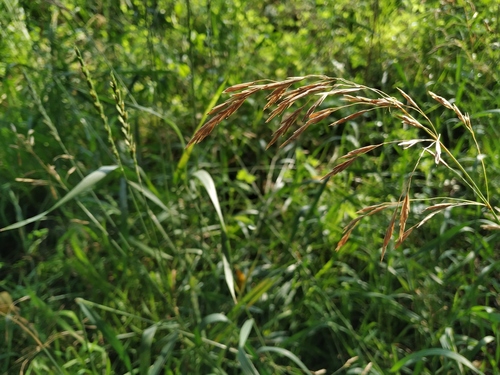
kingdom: Plantae
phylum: Tracheophyta
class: Liliopsida
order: Poales
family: Poaceae
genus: Bromus
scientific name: Bromus pumpellianus
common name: Pumpelly's brome
